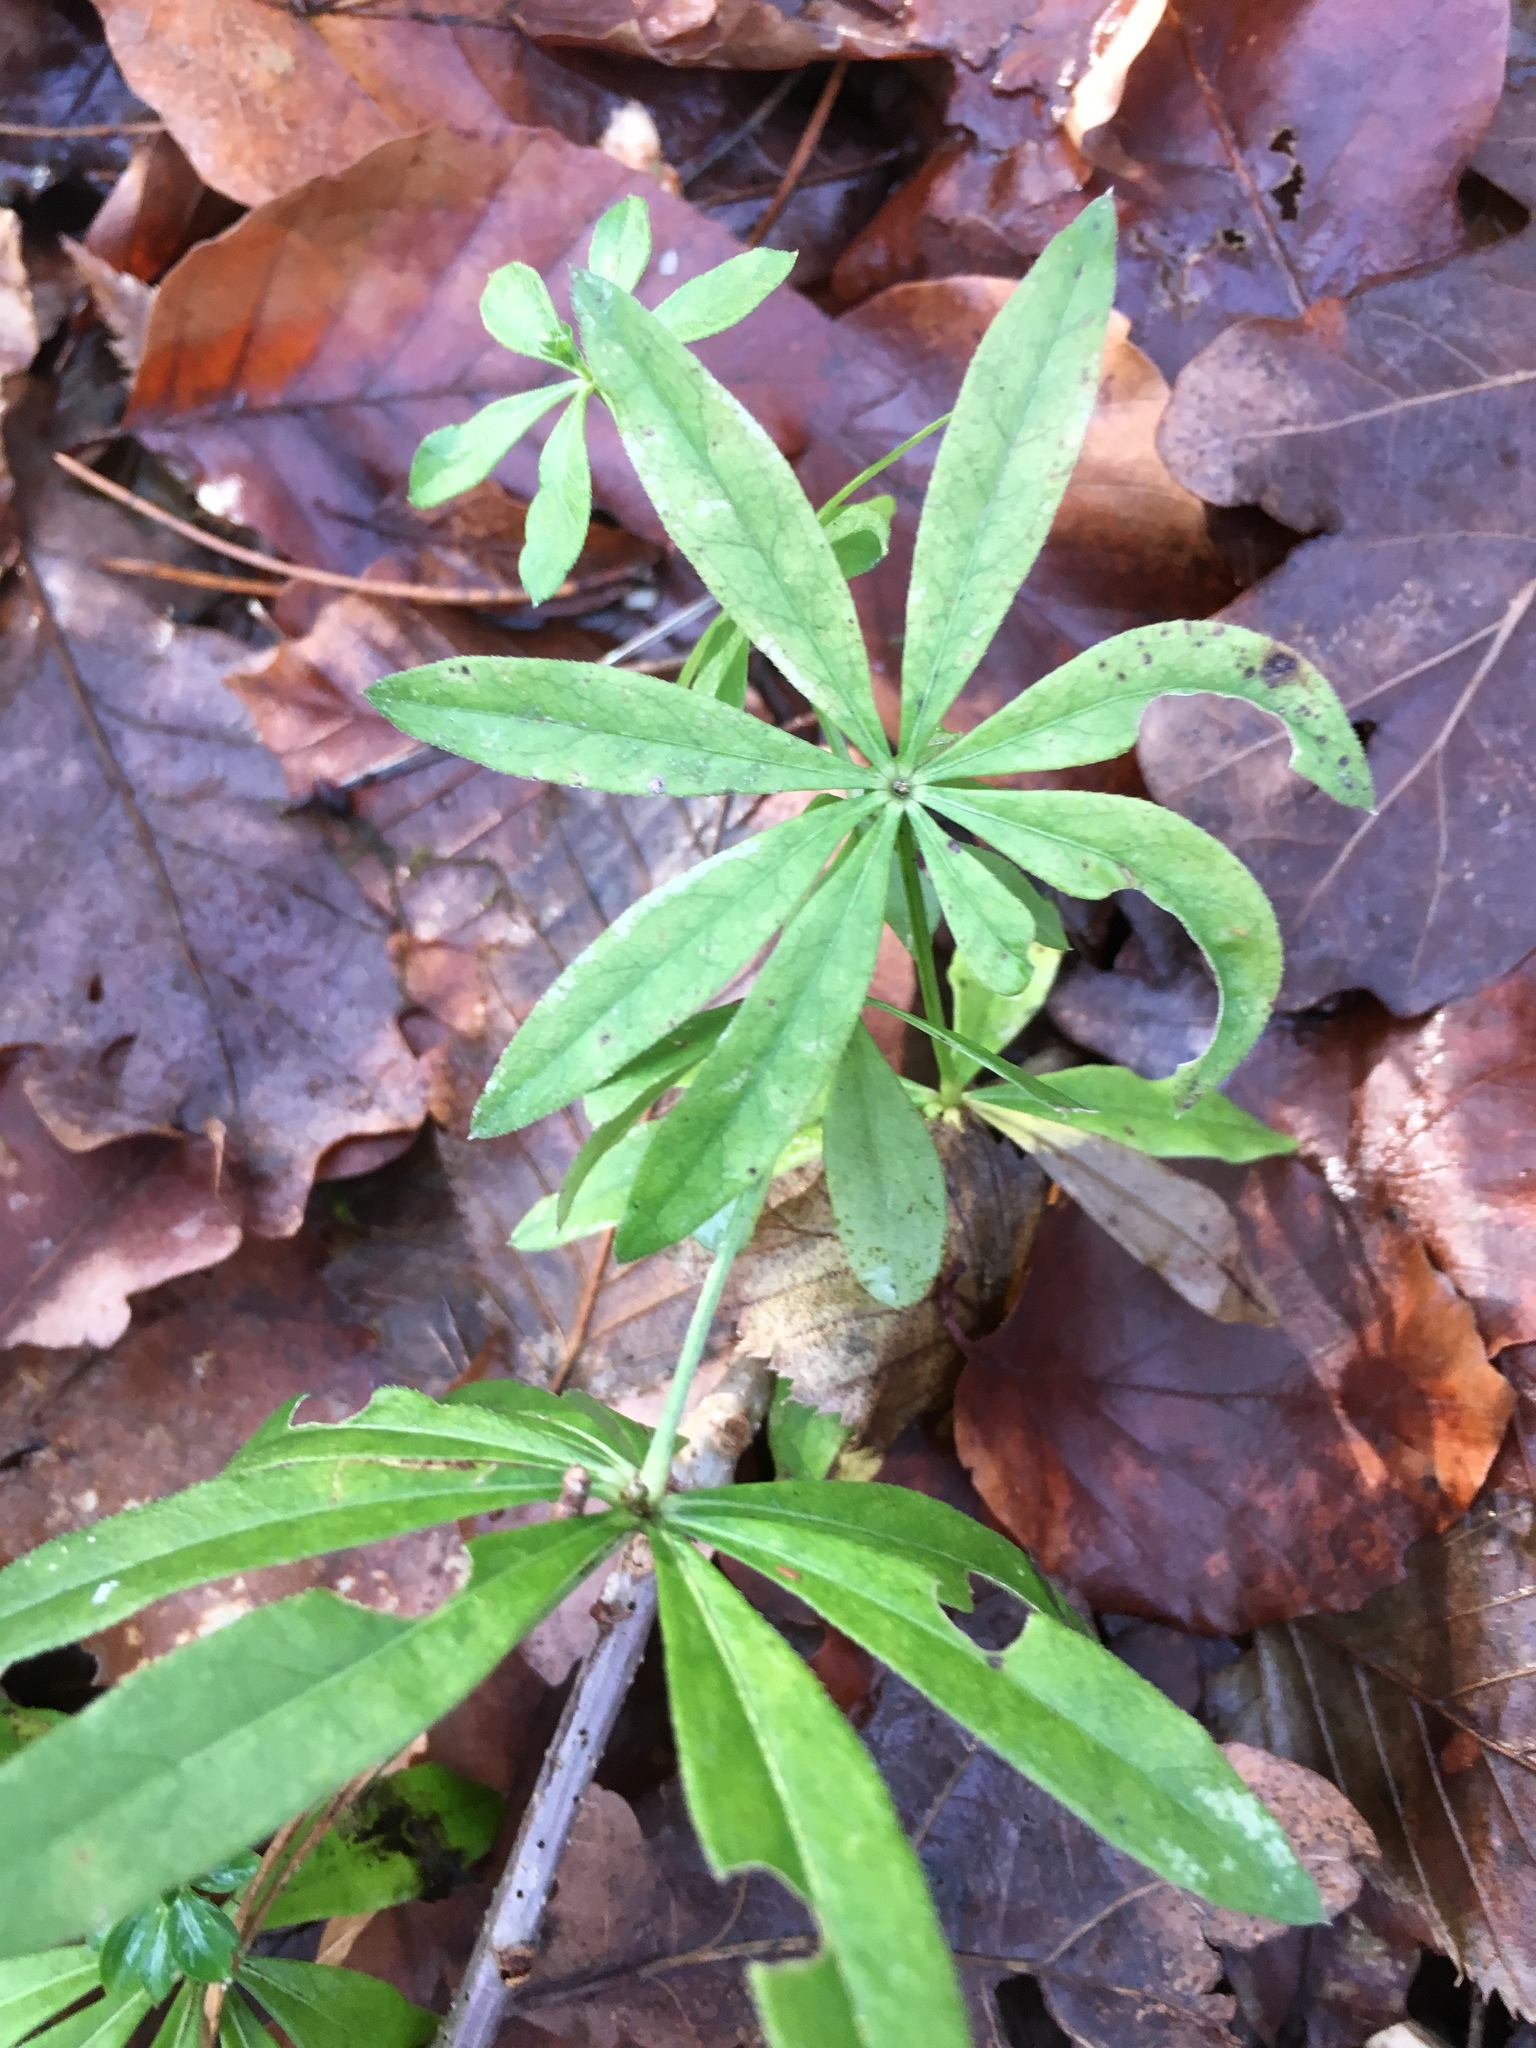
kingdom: Plantae
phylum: Tracheophyta
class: Magnoliopsida
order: Gentianales
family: Rubiaceae
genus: Galium
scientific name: Galium odoratum
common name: Sweet woodruff
